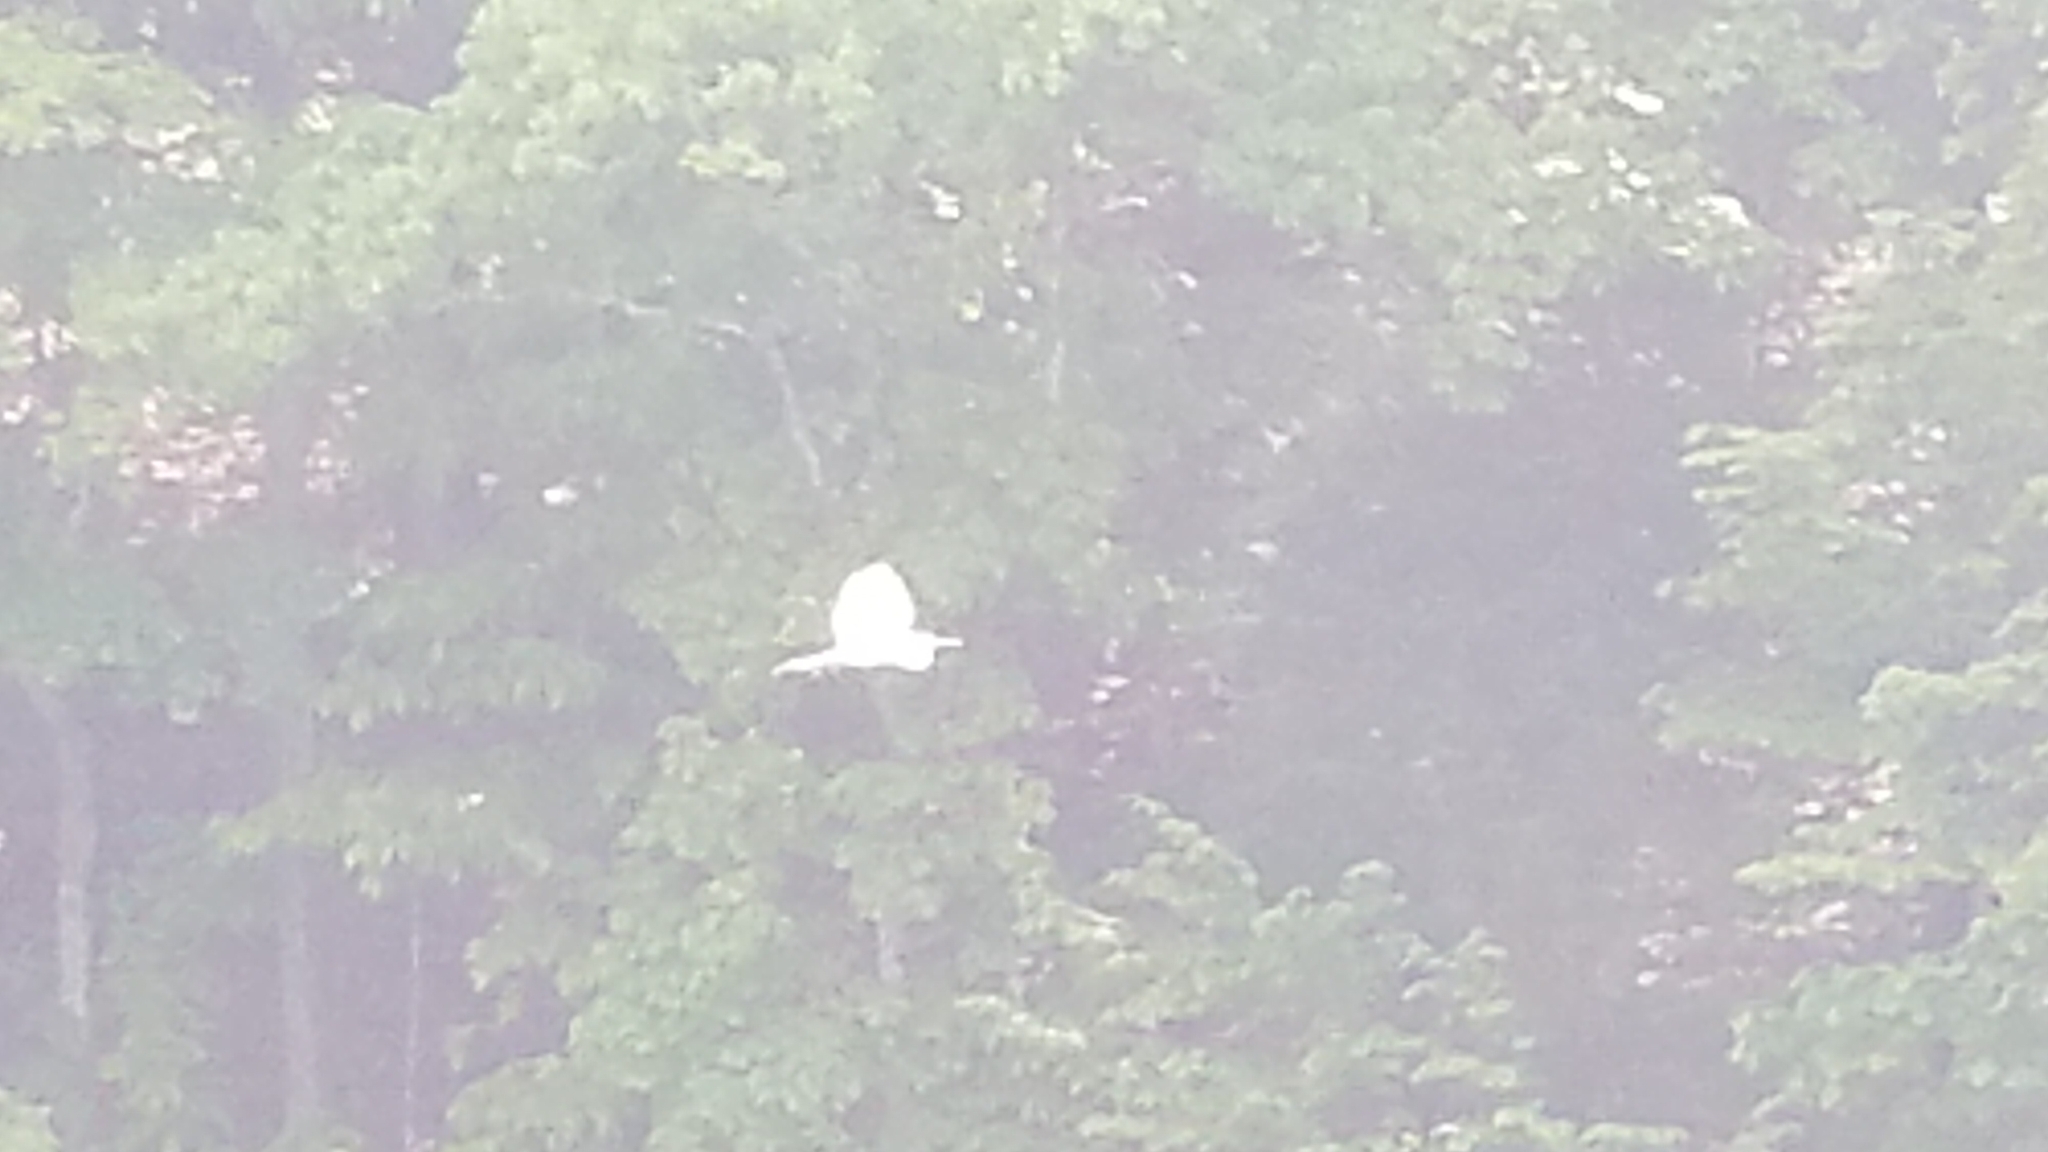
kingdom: Animalia
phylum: Chordata
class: Aves
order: Pelecaniformes
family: Ardeidae
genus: Ardea
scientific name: Ardea alba
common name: Great egret
